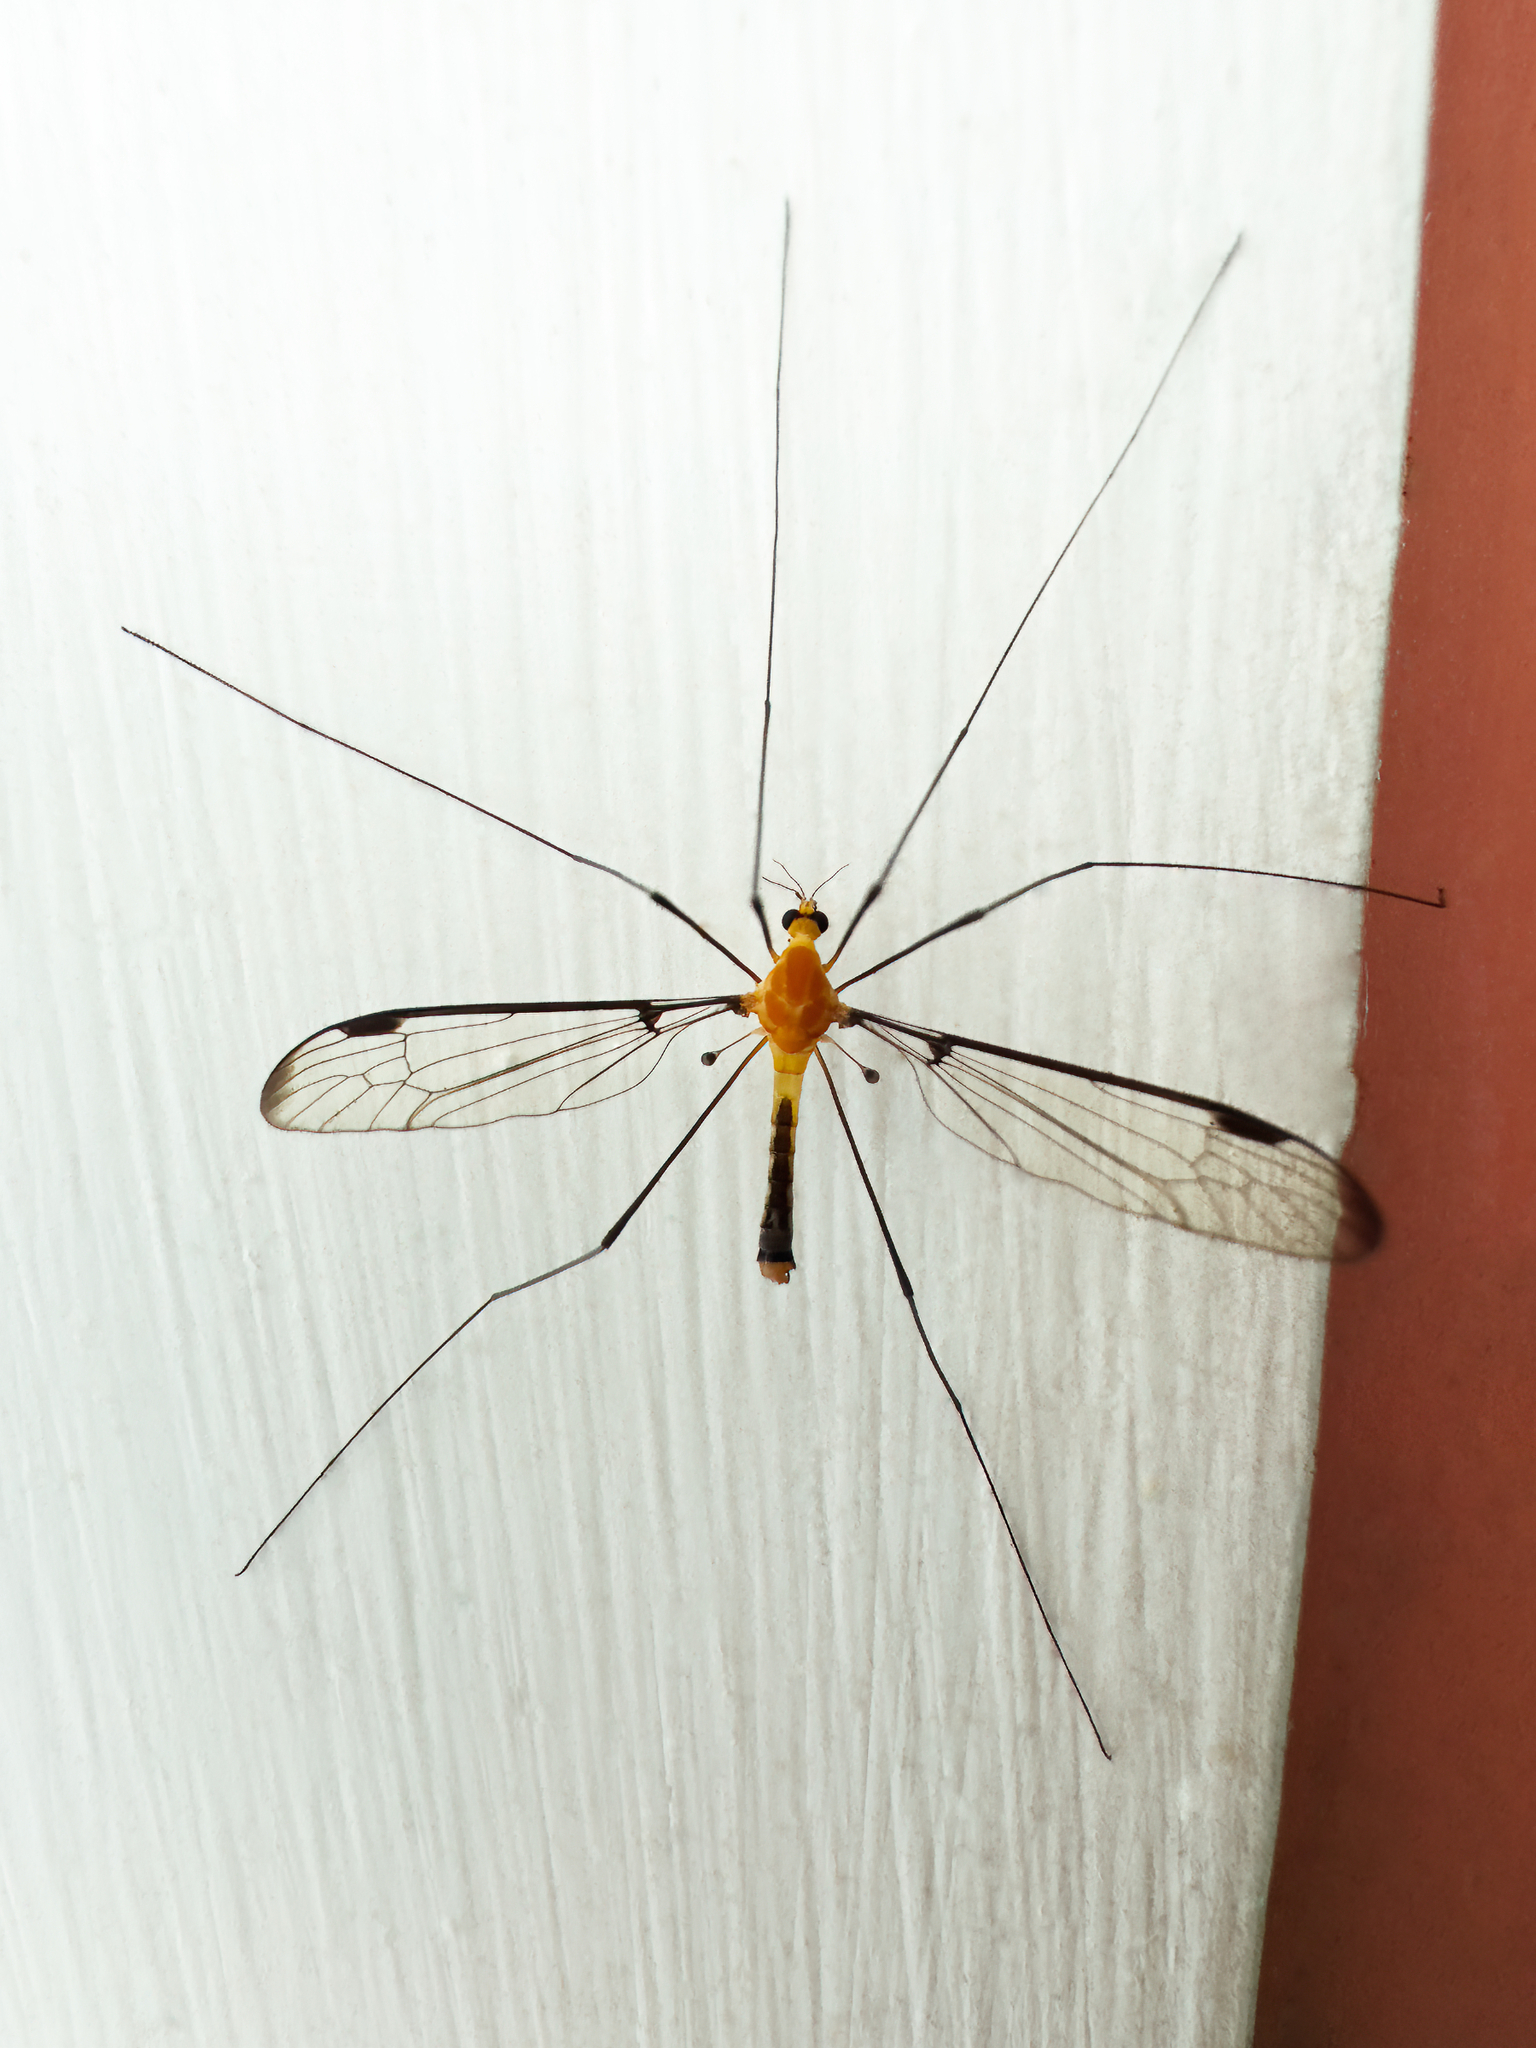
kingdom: Animalia
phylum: Arthropoda
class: Insecta
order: Diptera
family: Tipulidae
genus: Aurotipula
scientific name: Aurotipula
